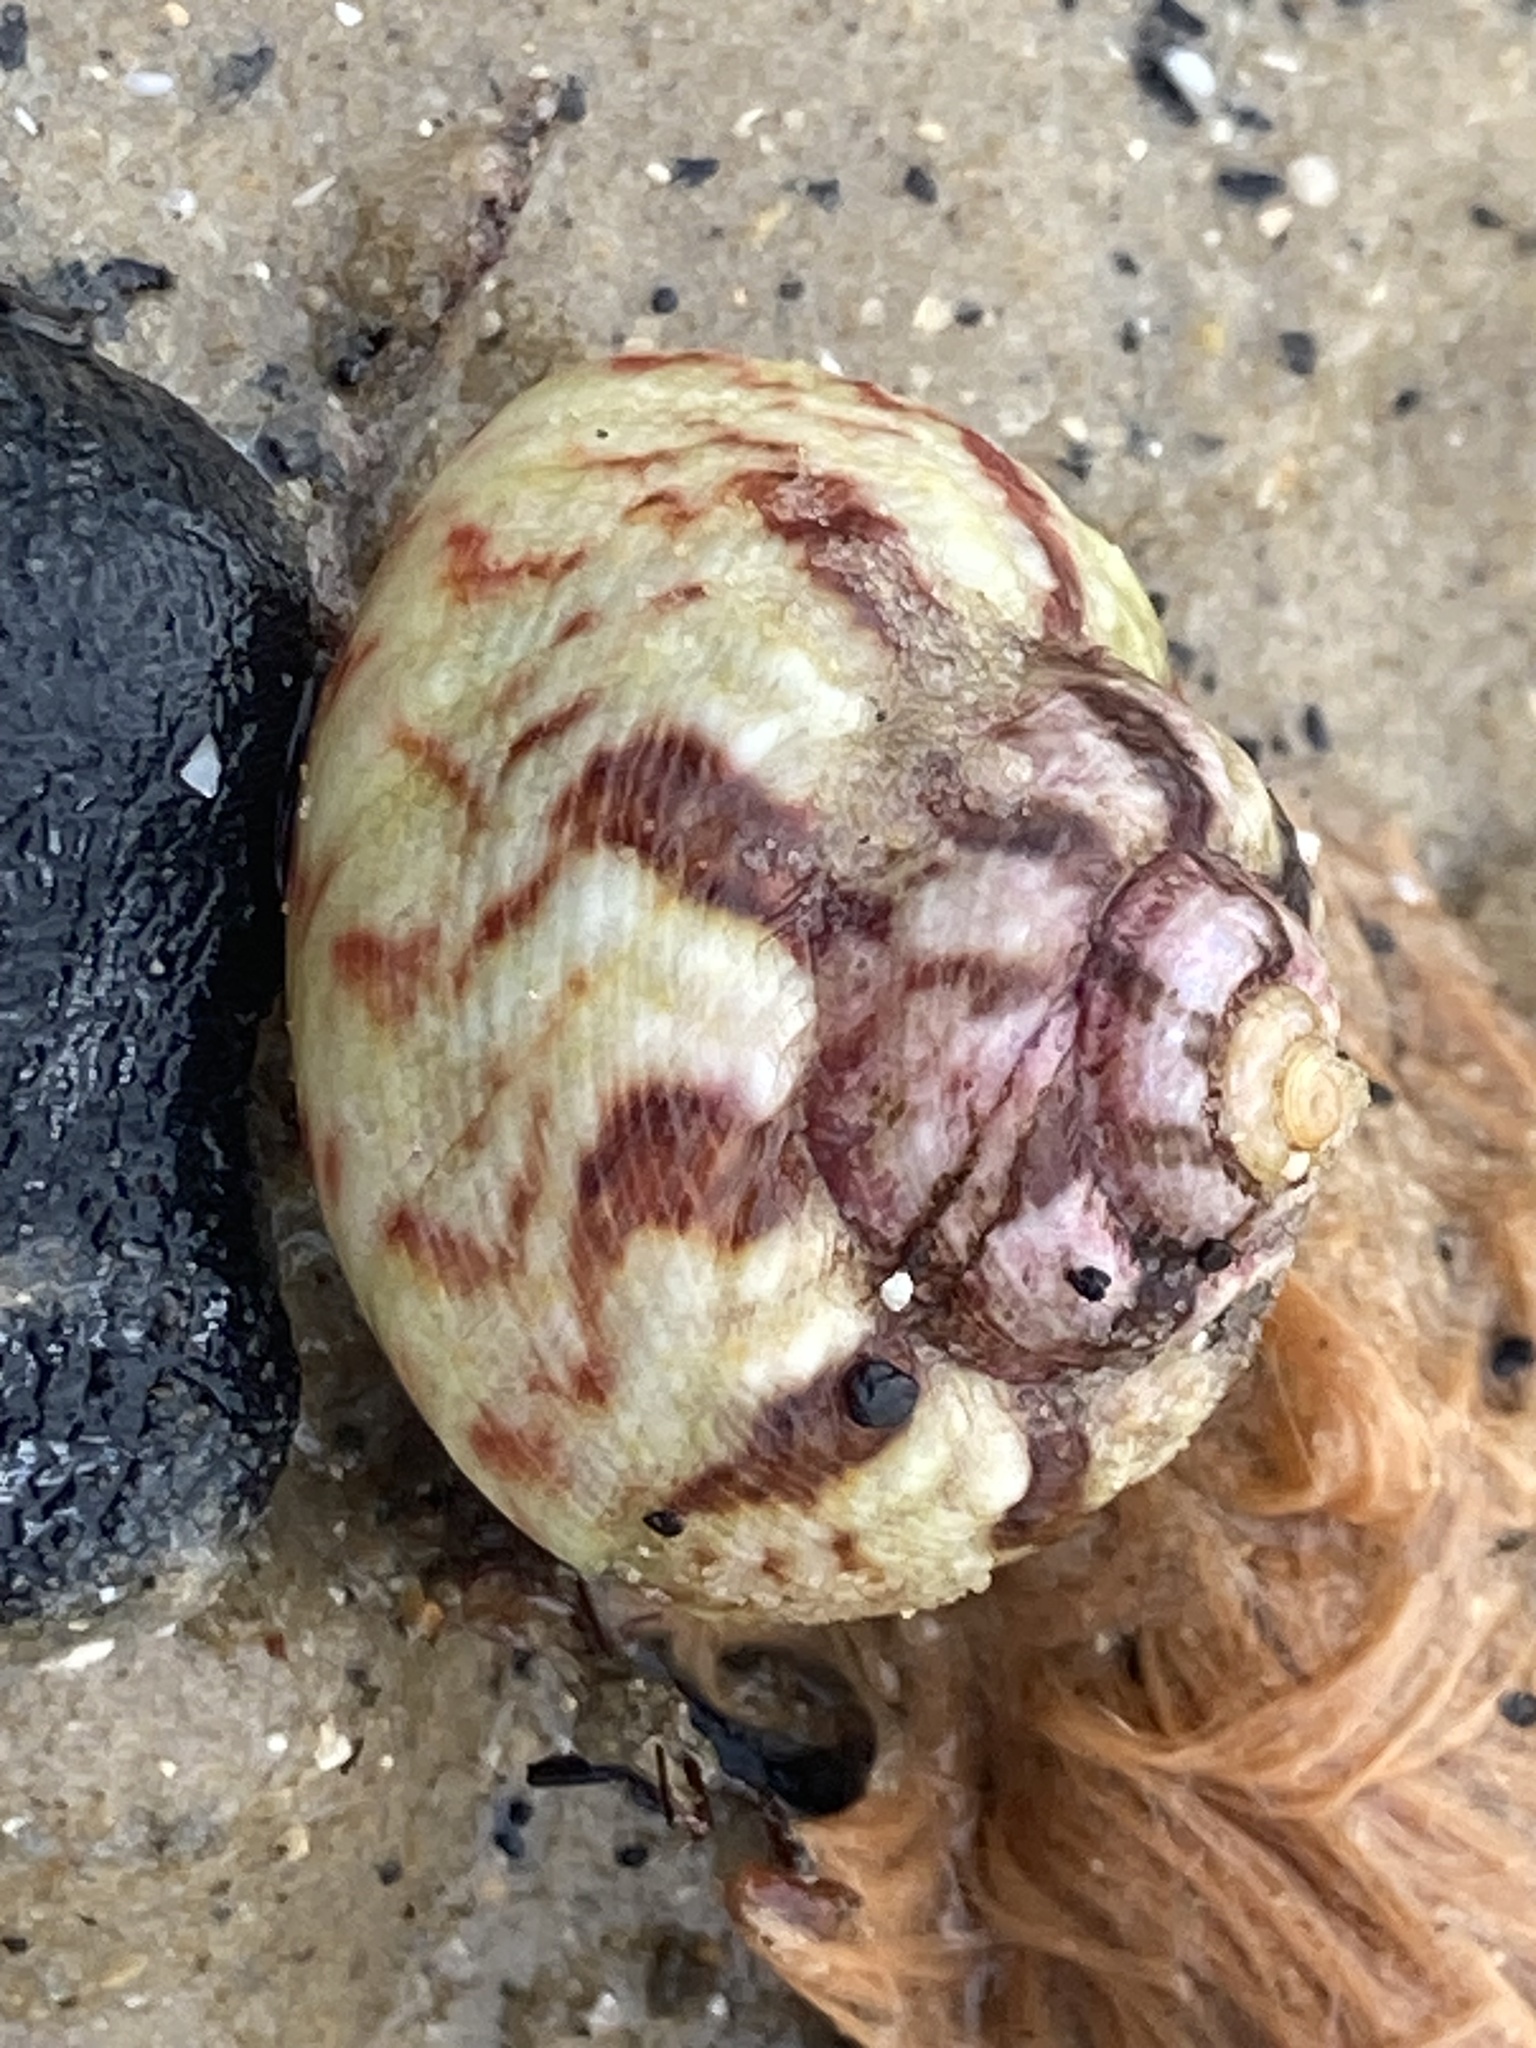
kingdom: Animalia
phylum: Mollusca
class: Gastropoda
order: Trochida
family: Trochidae
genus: Gibbula
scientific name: Gibbula magus
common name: Turban top shell
